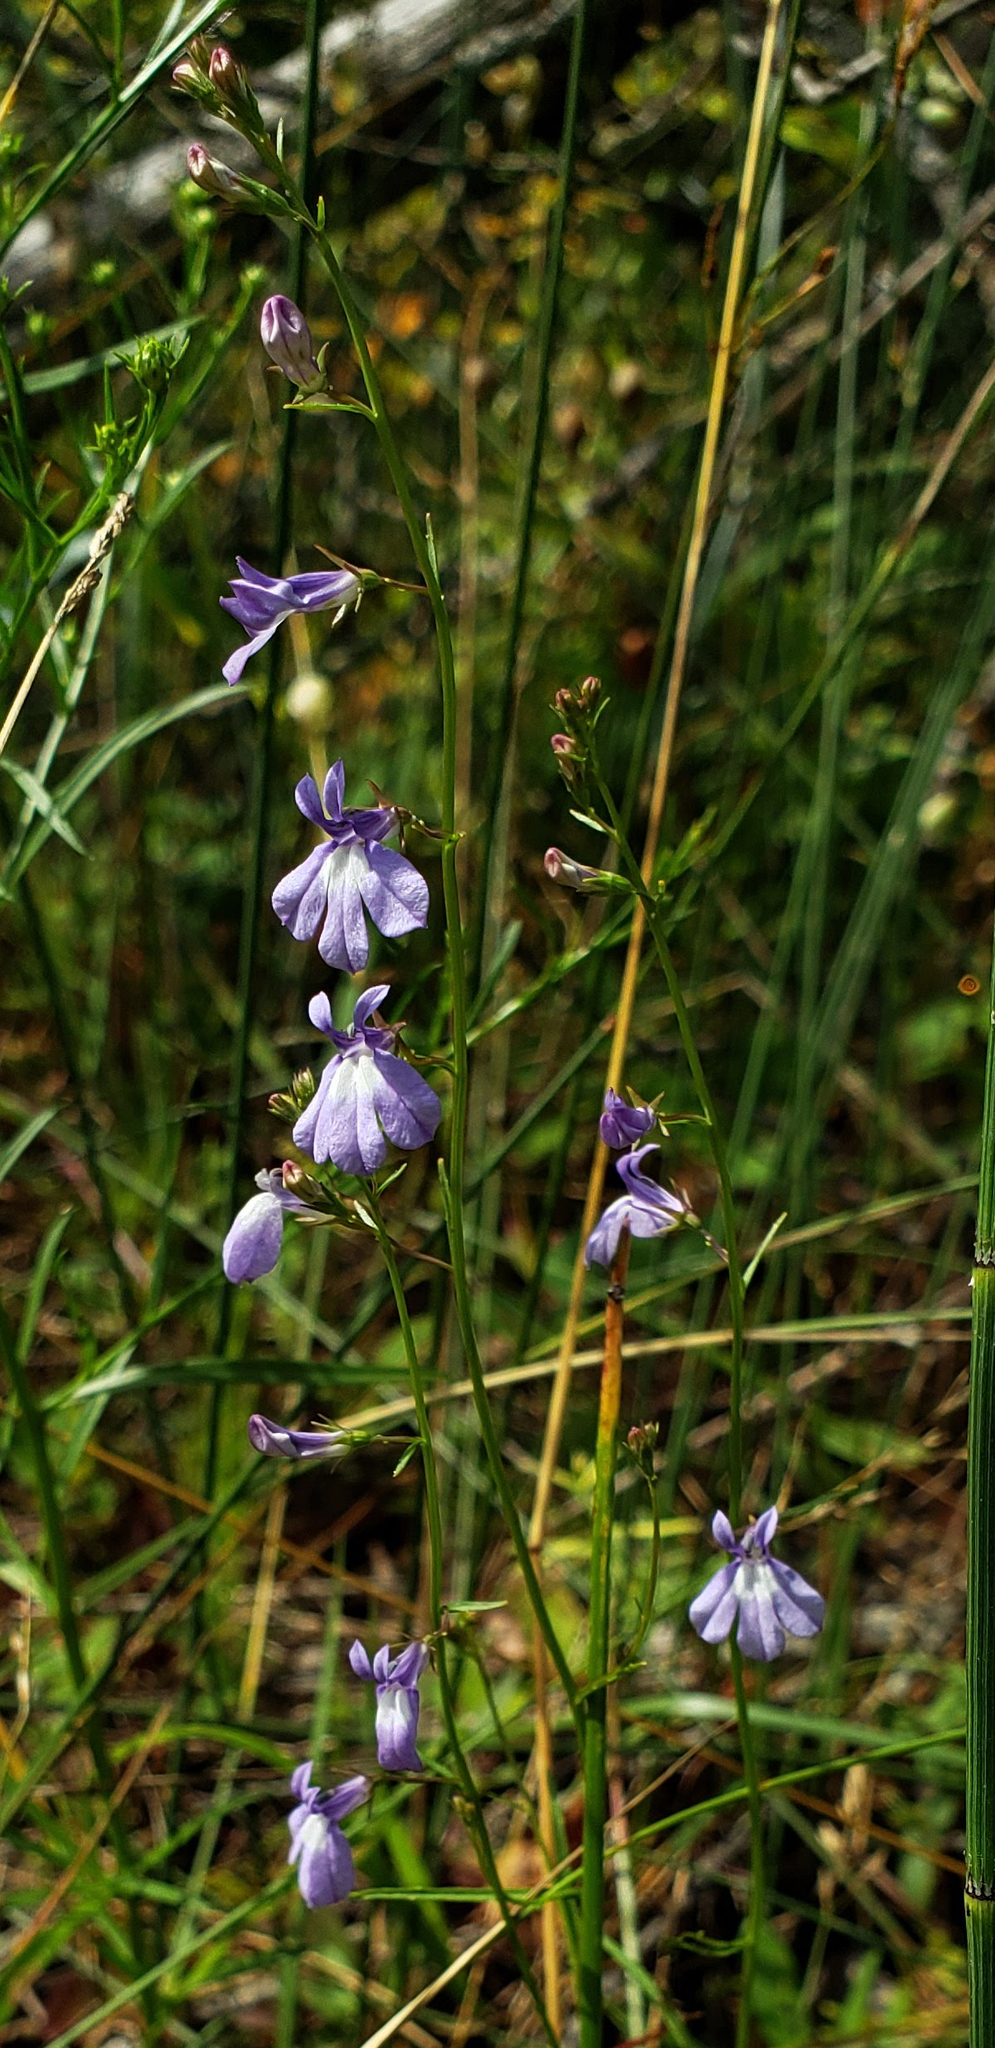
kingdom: Plantae
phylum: Tracheophyta
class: Magnoliopsida
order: Asterales
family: Campanulaceae
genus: Lobelia
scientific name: Lobelia kalmii
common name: Kalm's lobelia
